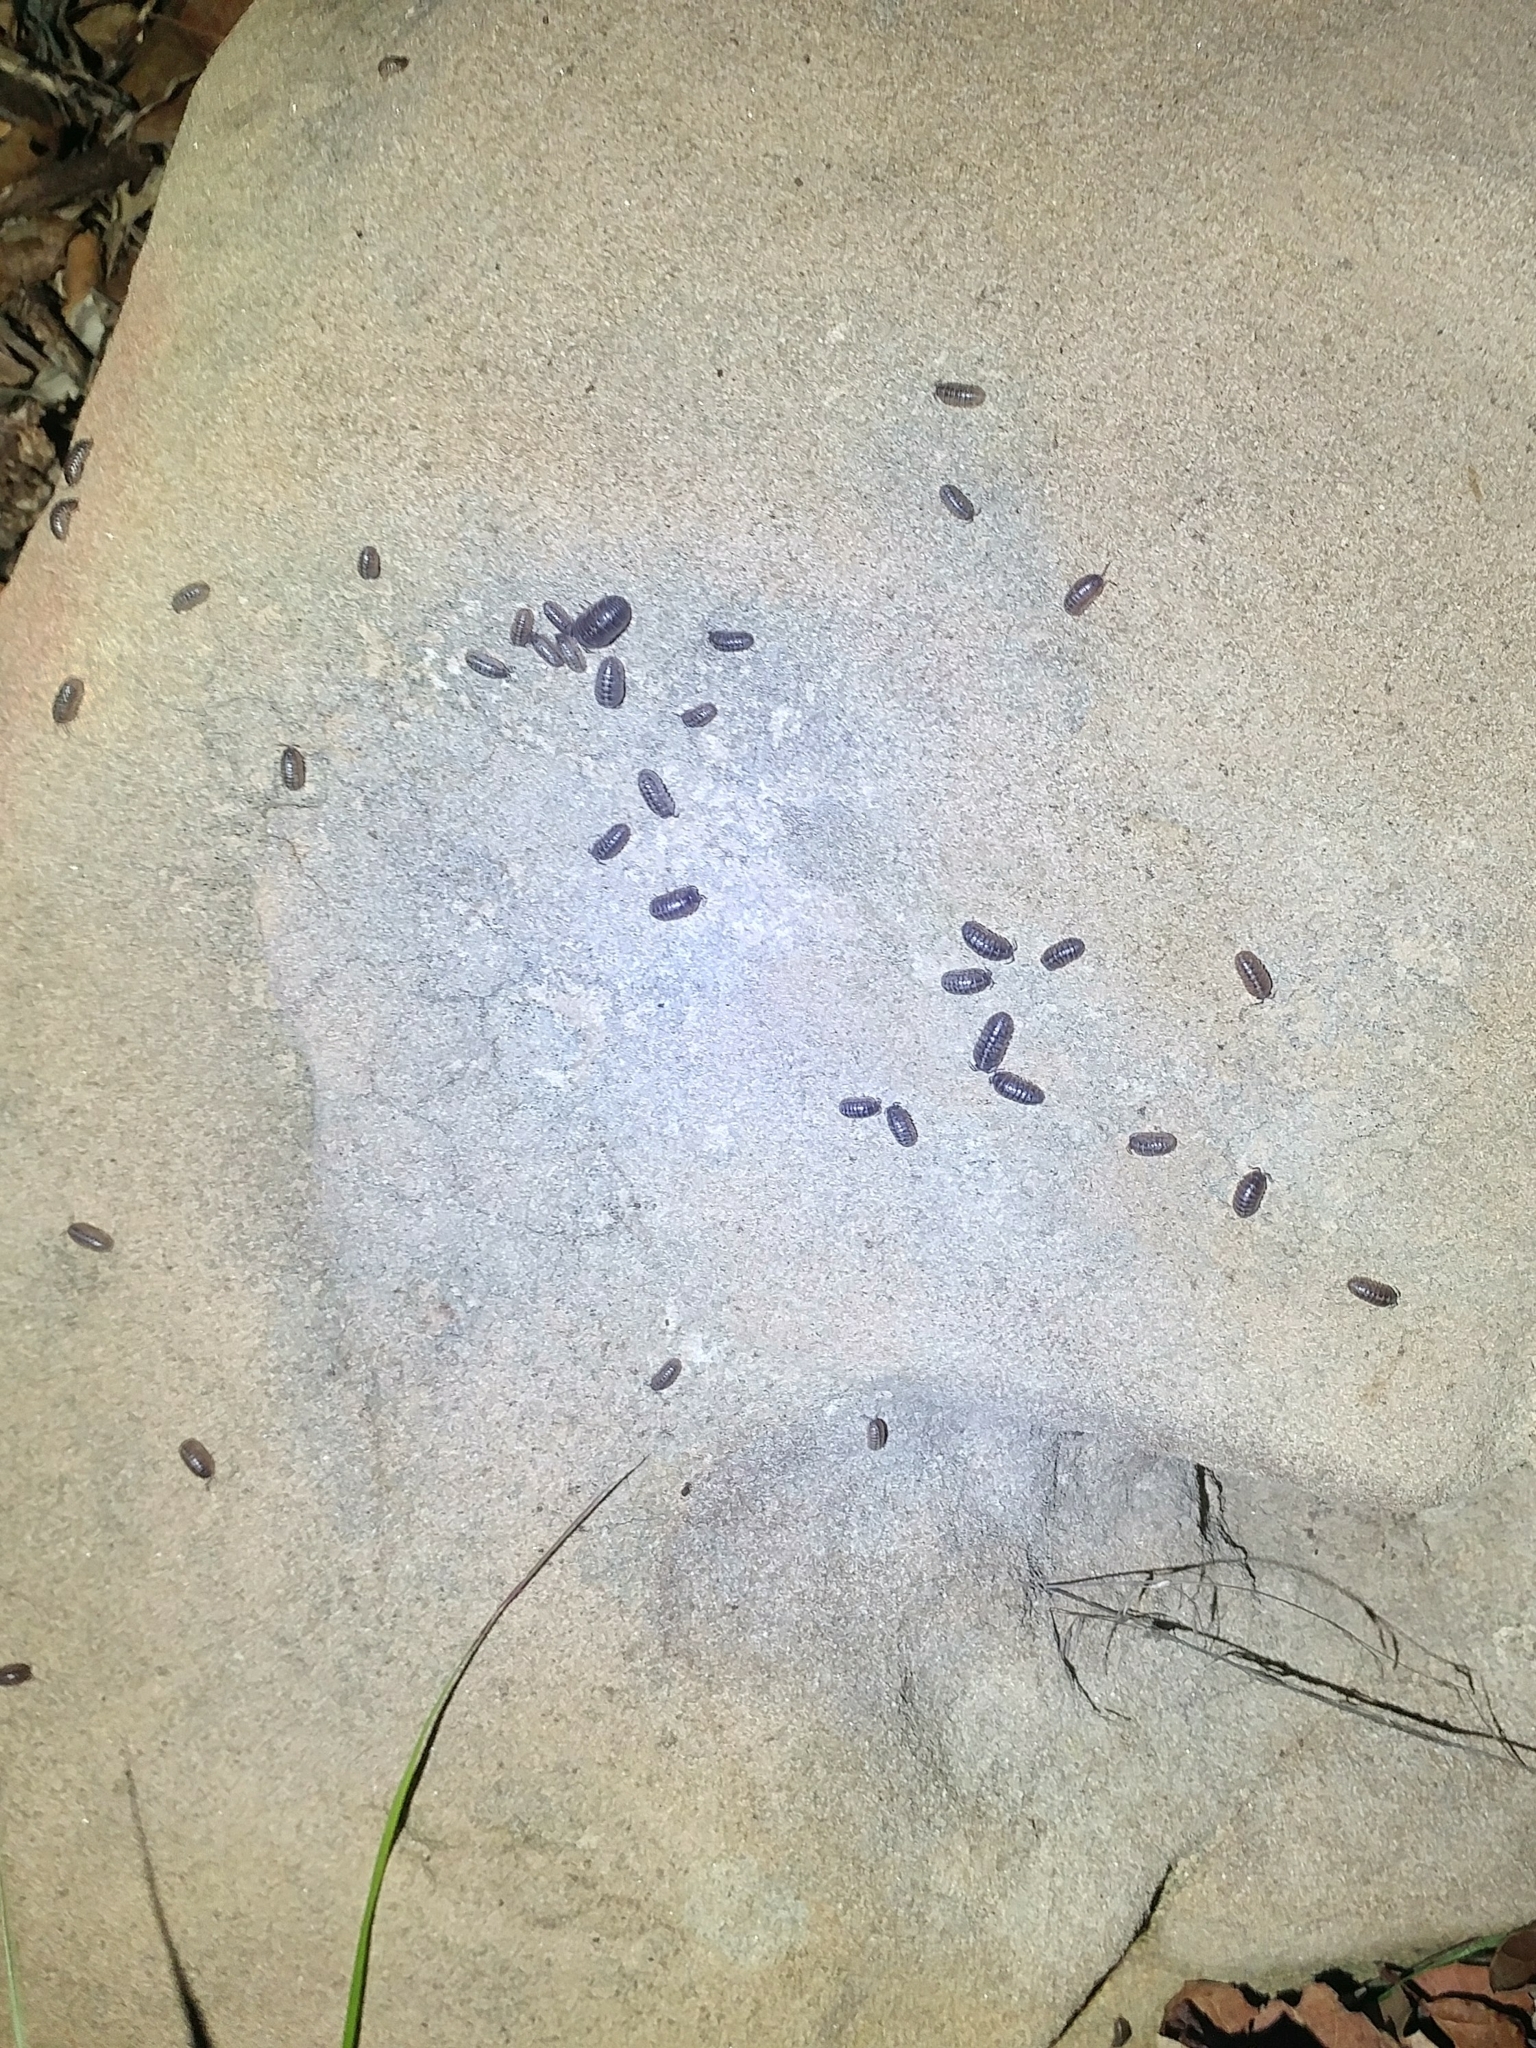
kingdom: Animalia
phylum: Arthropoda
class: Malacostraca
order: Isopoda
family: Armadillidiidae
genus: Armadillidium
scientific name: Armadillidium vulgare
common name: Common pill woodlouse
